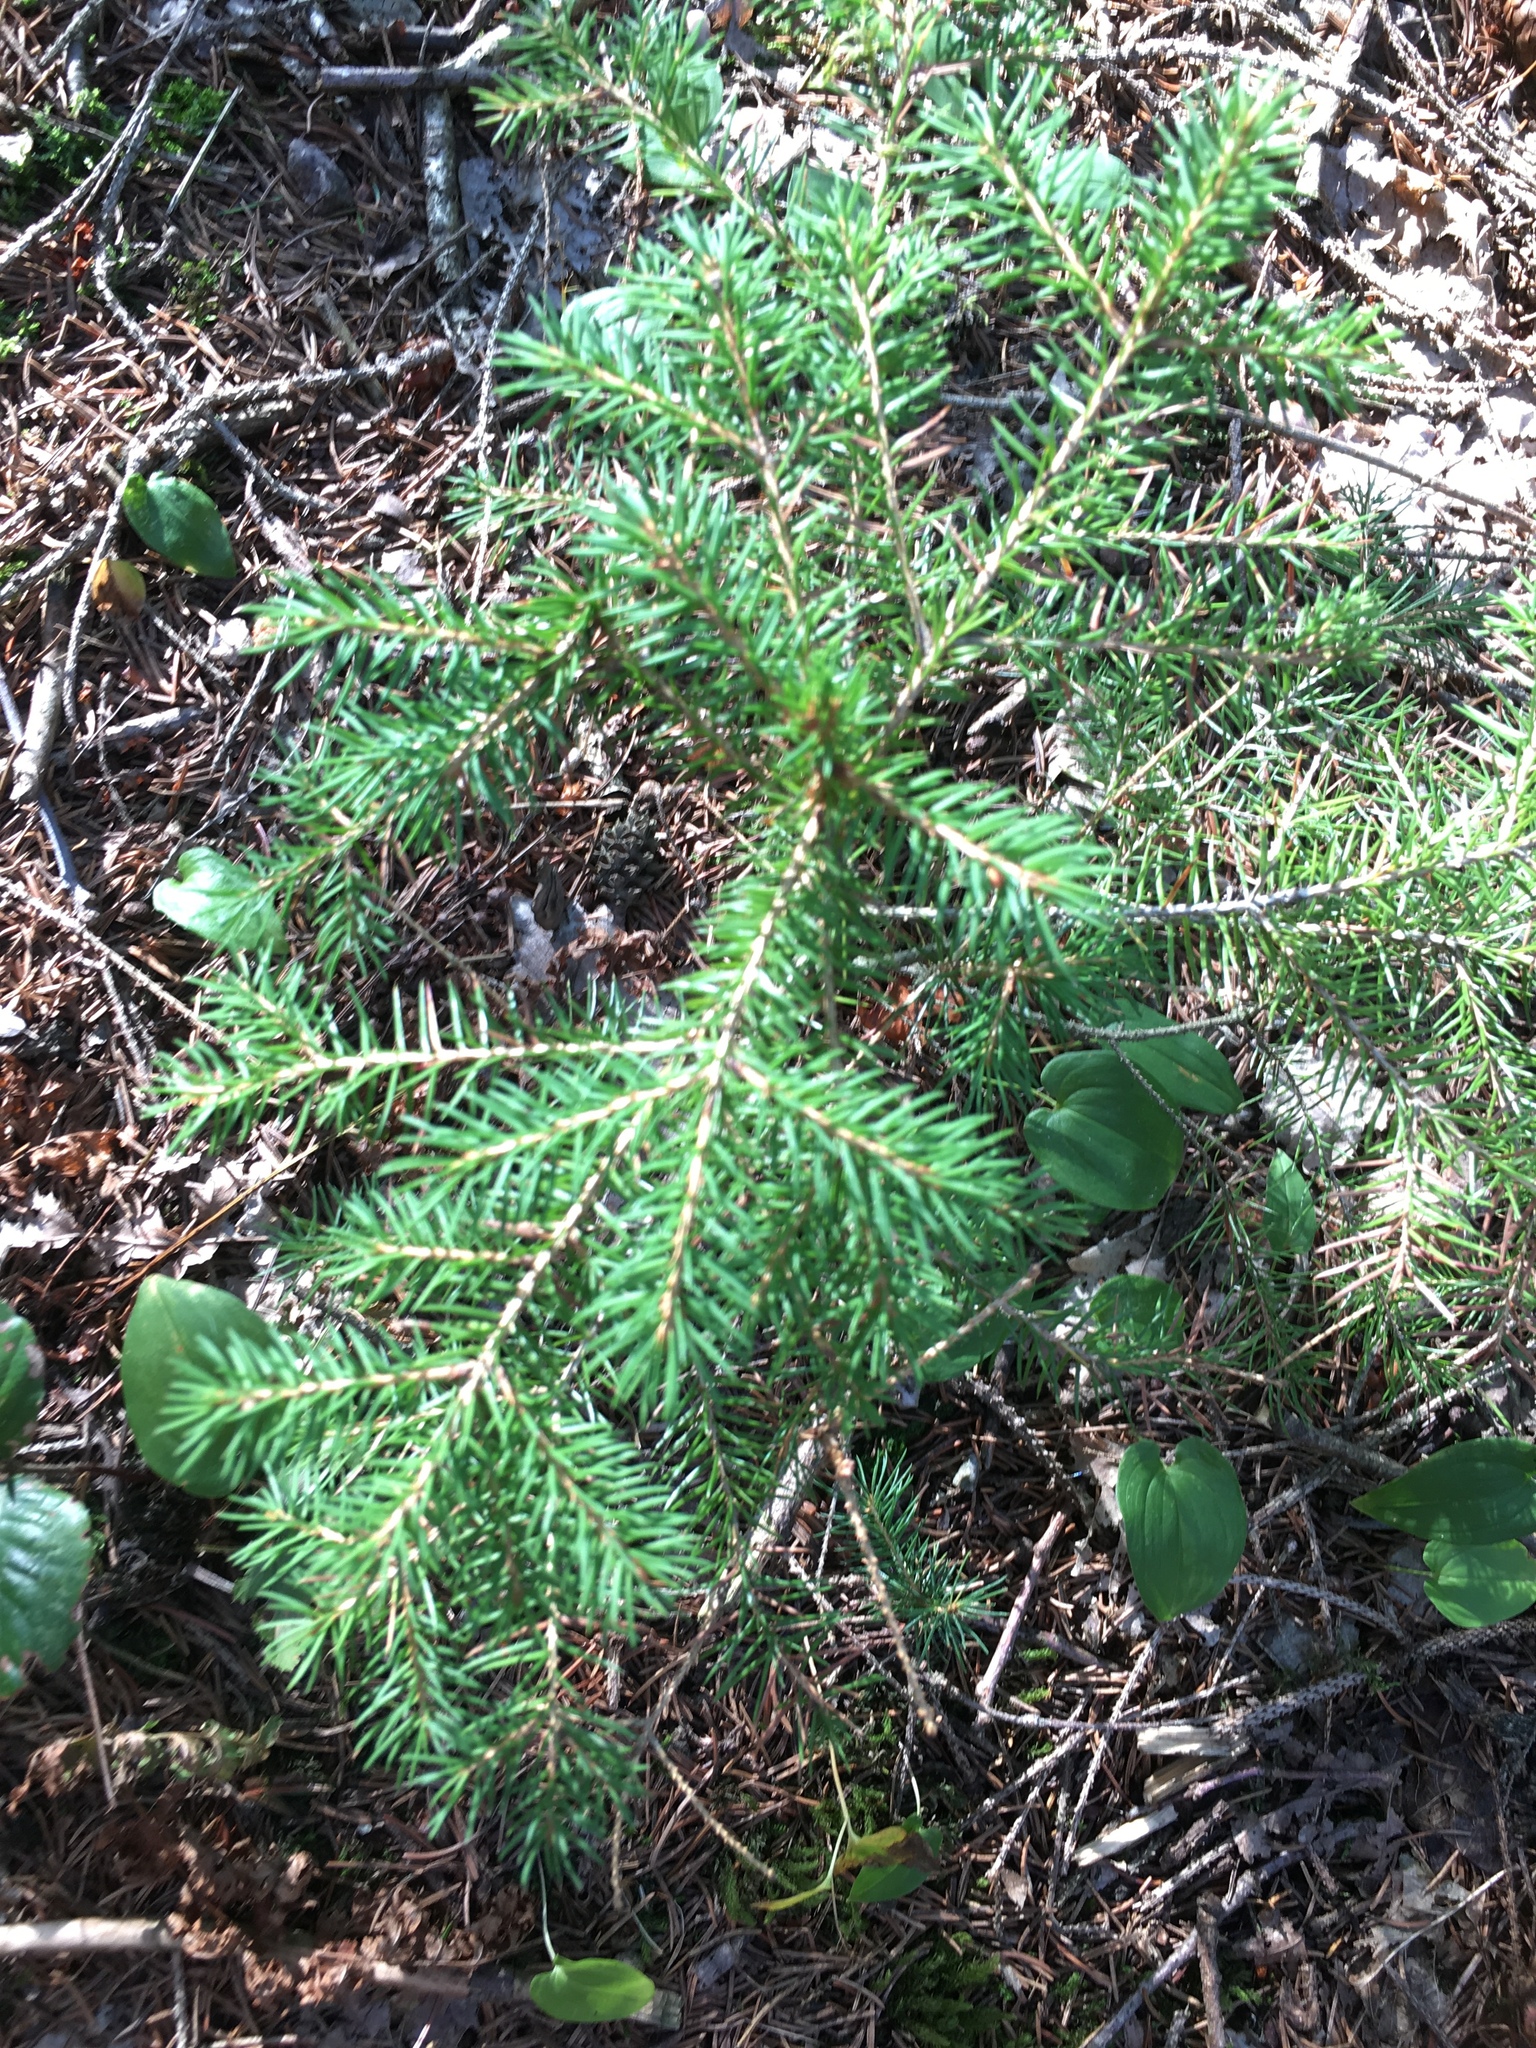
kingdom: Plantae
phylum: Tracheophyta
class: Pinopsida
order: Pinales
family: Pinaceae
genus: Picea
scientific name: Picea abies
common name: Norway spruce
